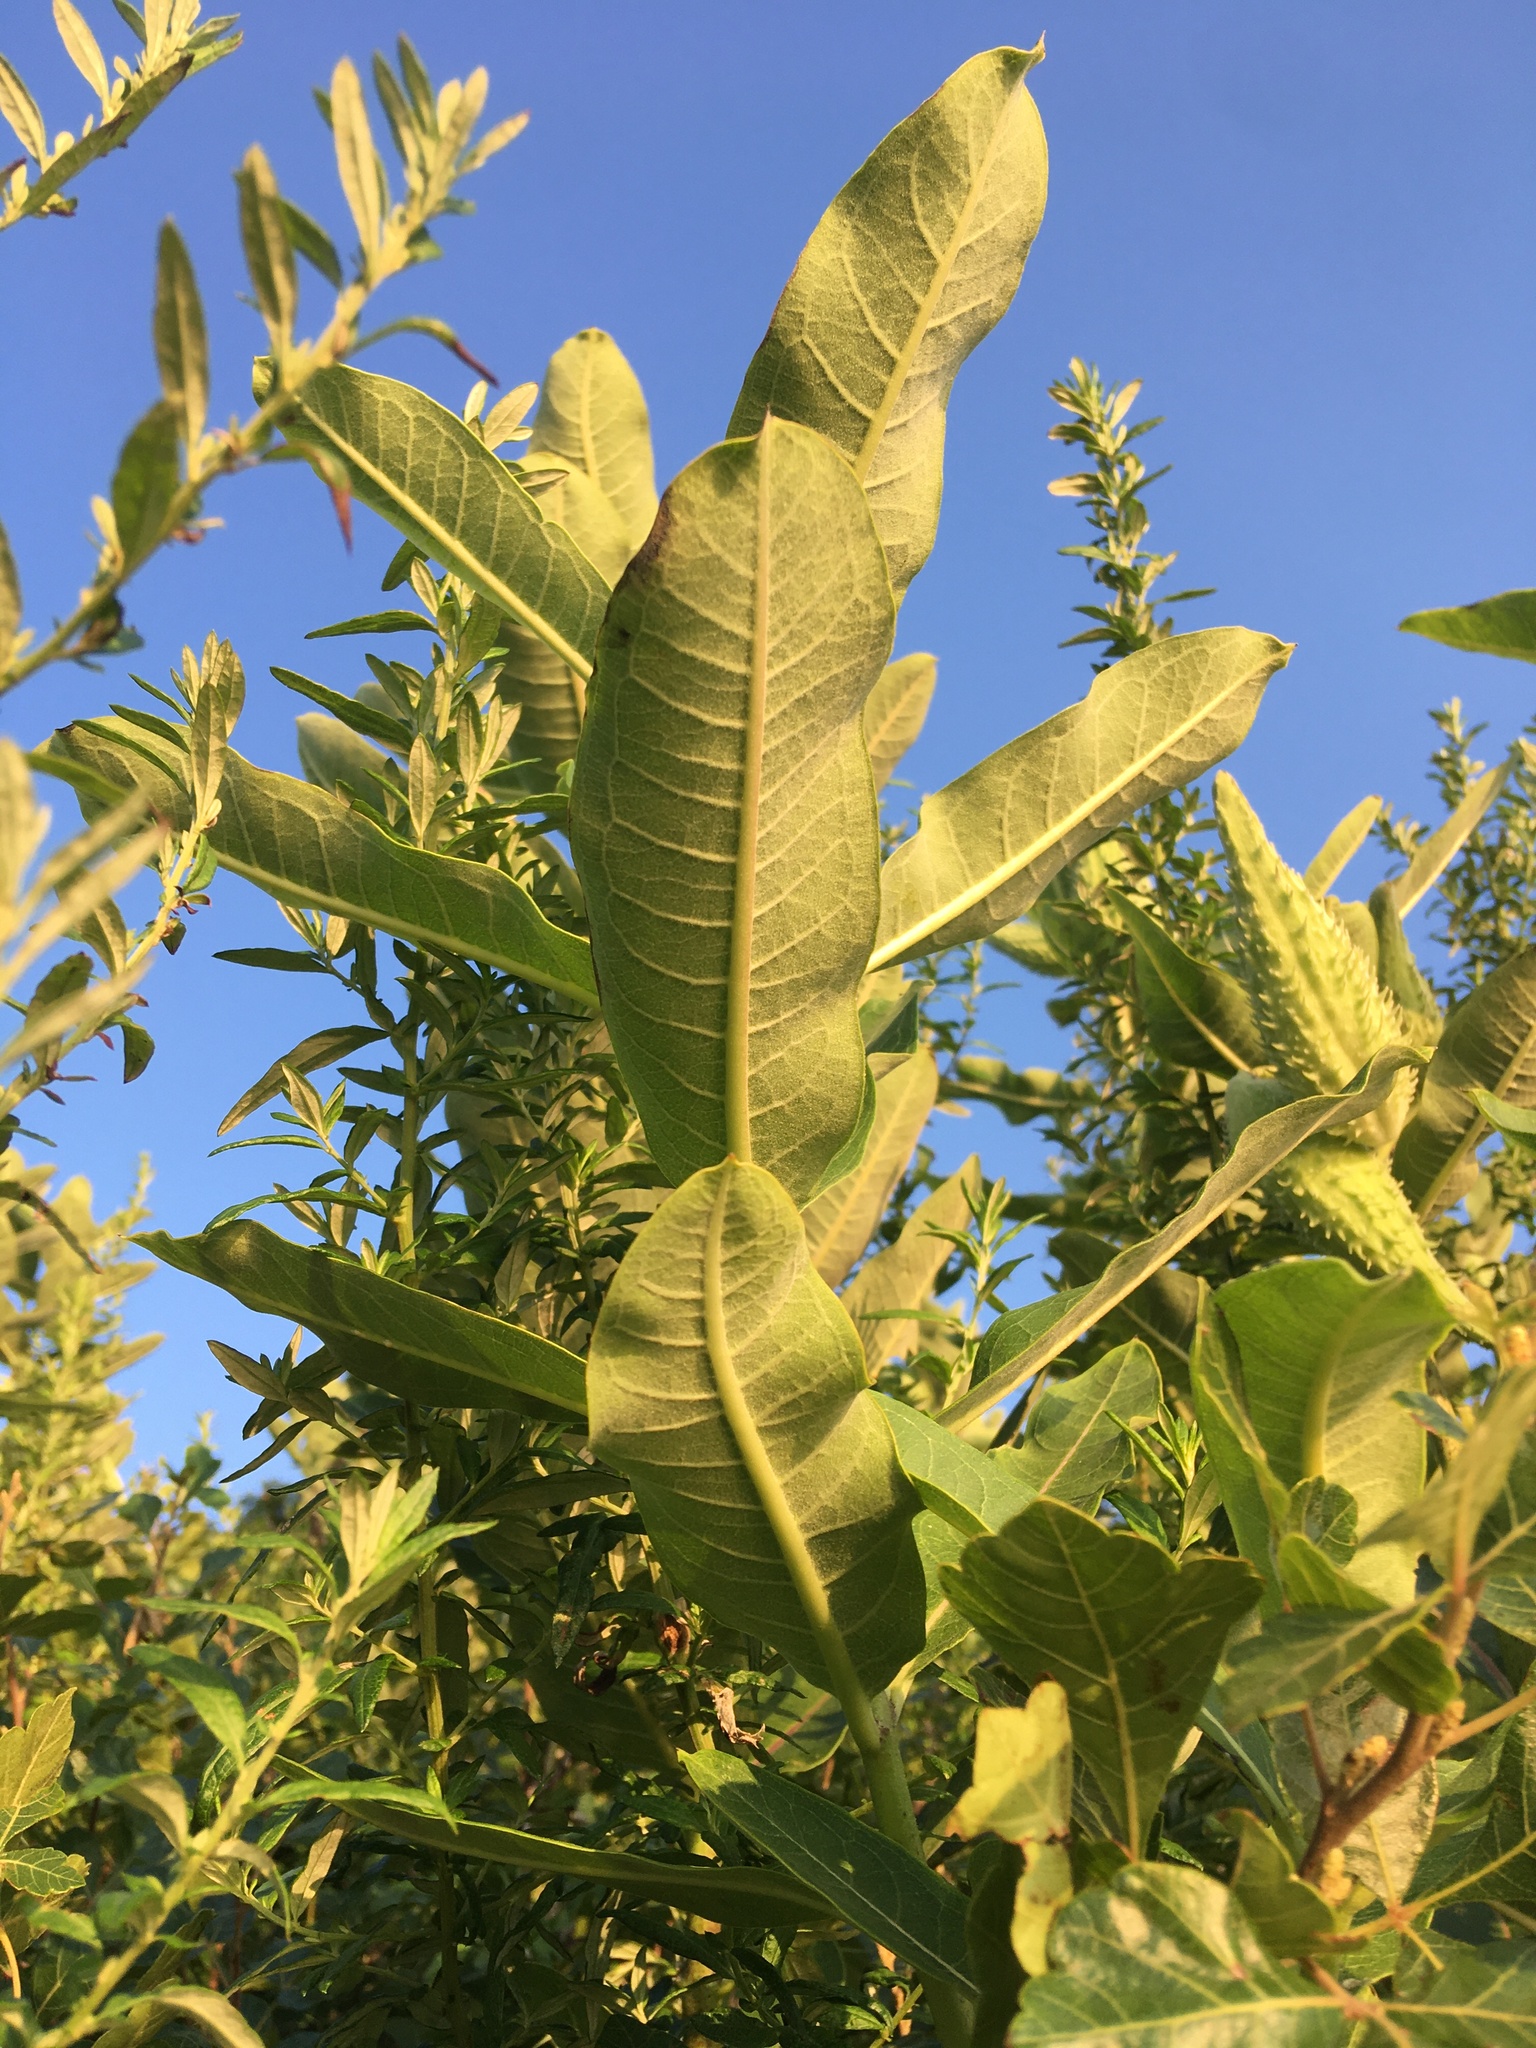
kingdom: Plantae
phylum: Tracheophyta
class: Magnoliopsida
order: Gentianales
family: Apocynaceae
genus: Asclepias
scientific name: Asclepias syriaca
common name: Common milkweed
